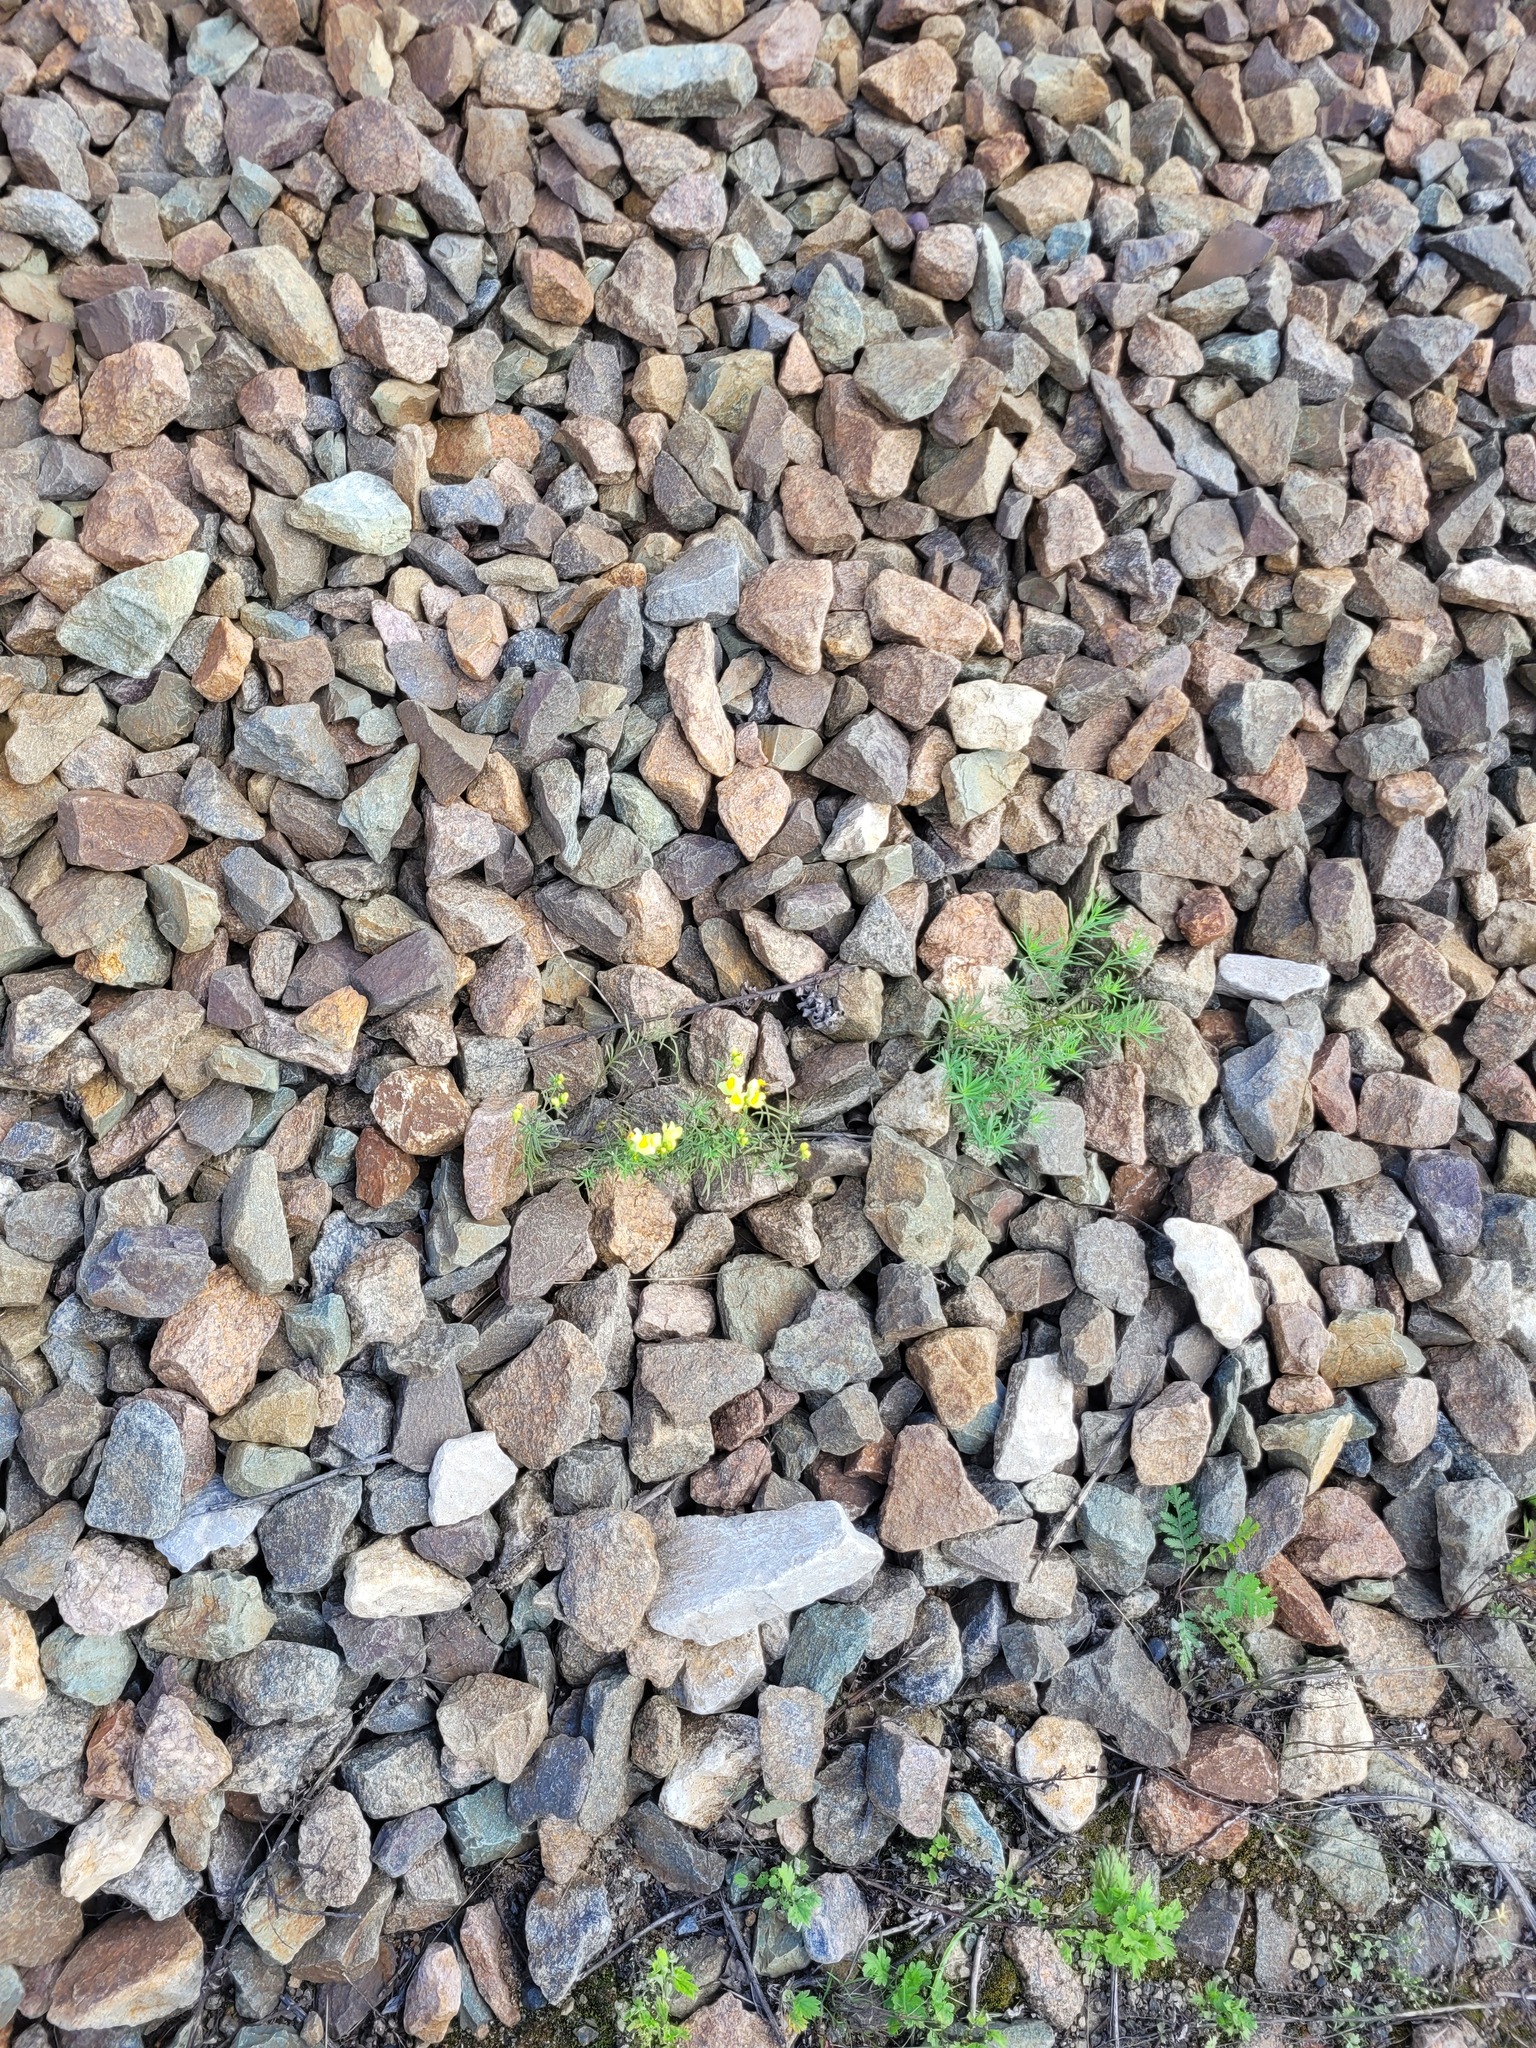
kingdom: Plantae
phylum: Tracheophyta
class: Magnoliopsida
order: Lamiales
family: Plantaginaceae
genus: Linaria
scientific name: Linaria vulgaris
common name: Butter and eggs
